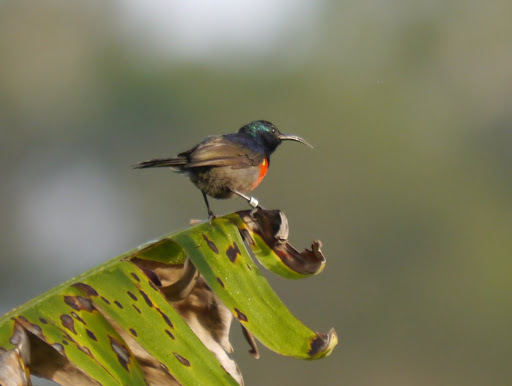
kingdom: Animalia
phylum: Chordata
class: Aves
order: Passeriformes
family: Nectariniidae
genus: Cinnyris
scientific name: Cinnyris chloropygius
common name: Olive-bellied sunbird
